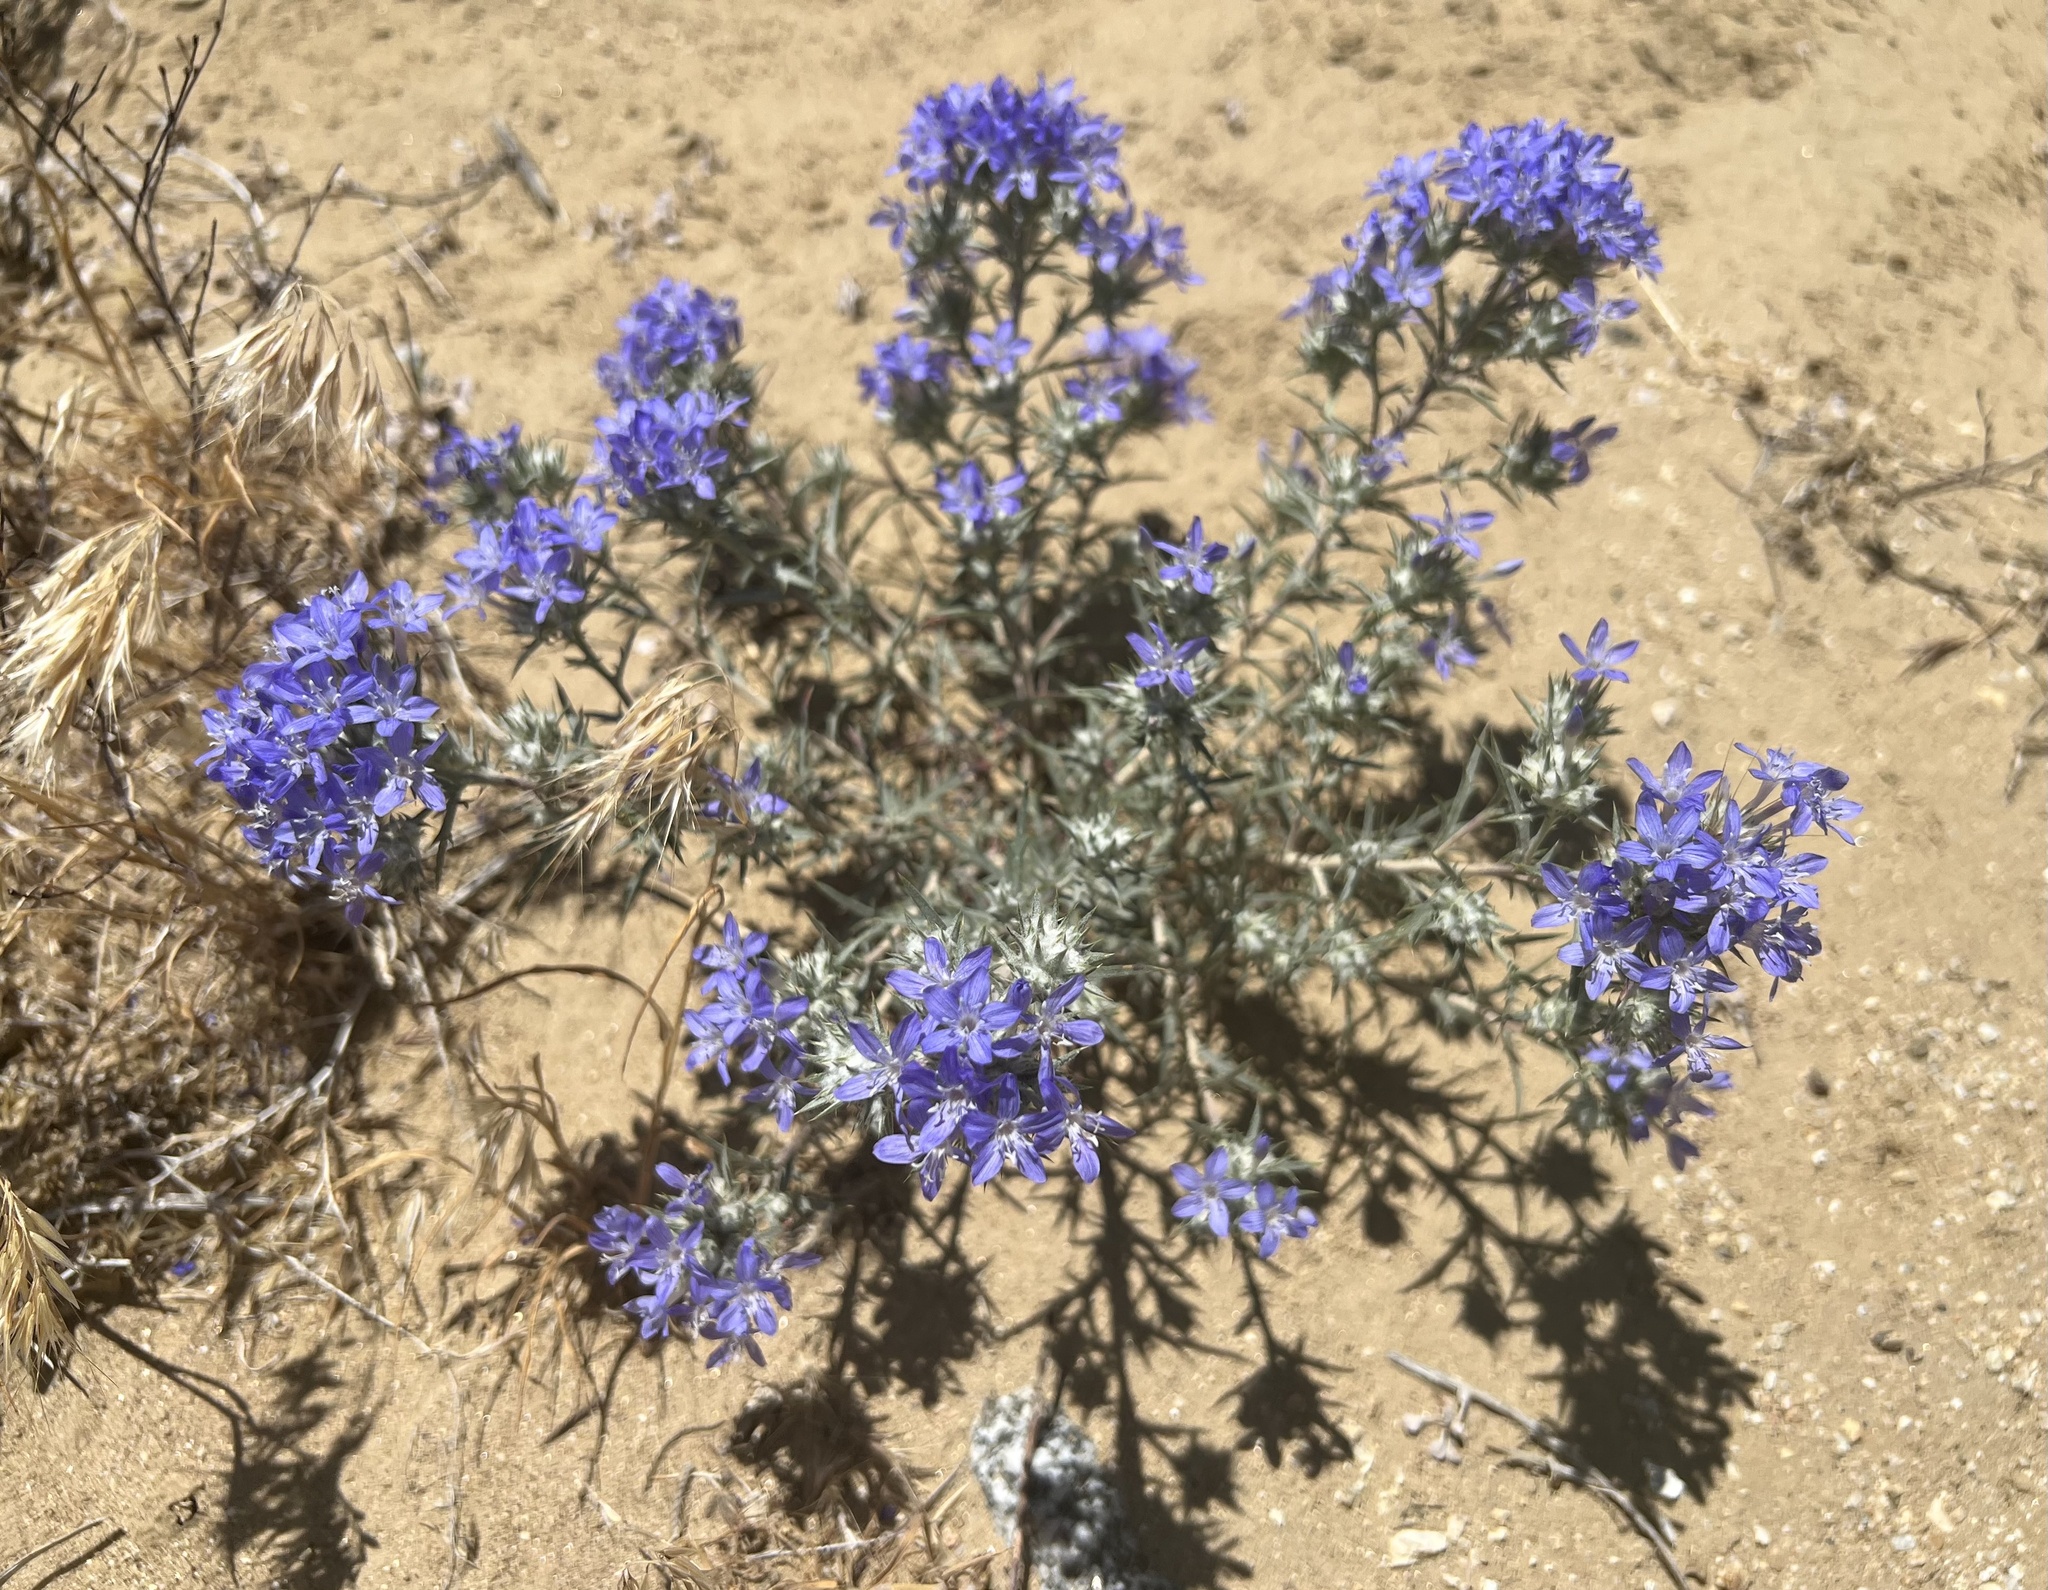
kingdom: Plantae
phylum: Tracheophyta
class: Magnoliopsida
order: Ericales
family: Polemoniaceae
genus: Eriastrum
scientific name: Eriastrum densifolium
